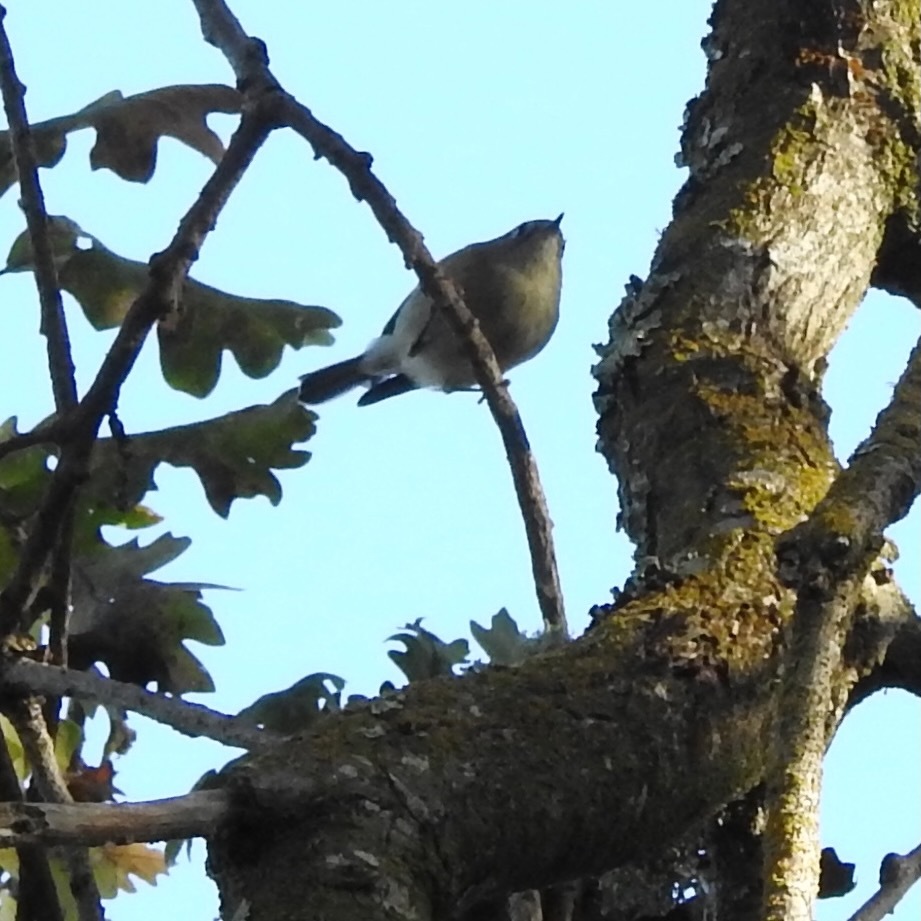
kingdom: Animalia
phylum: Chordata
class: Aves
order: Passeriformes
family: Regulidae
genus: Regulus
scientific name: Regulus calendula
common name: Ruby-crowned kinglet
